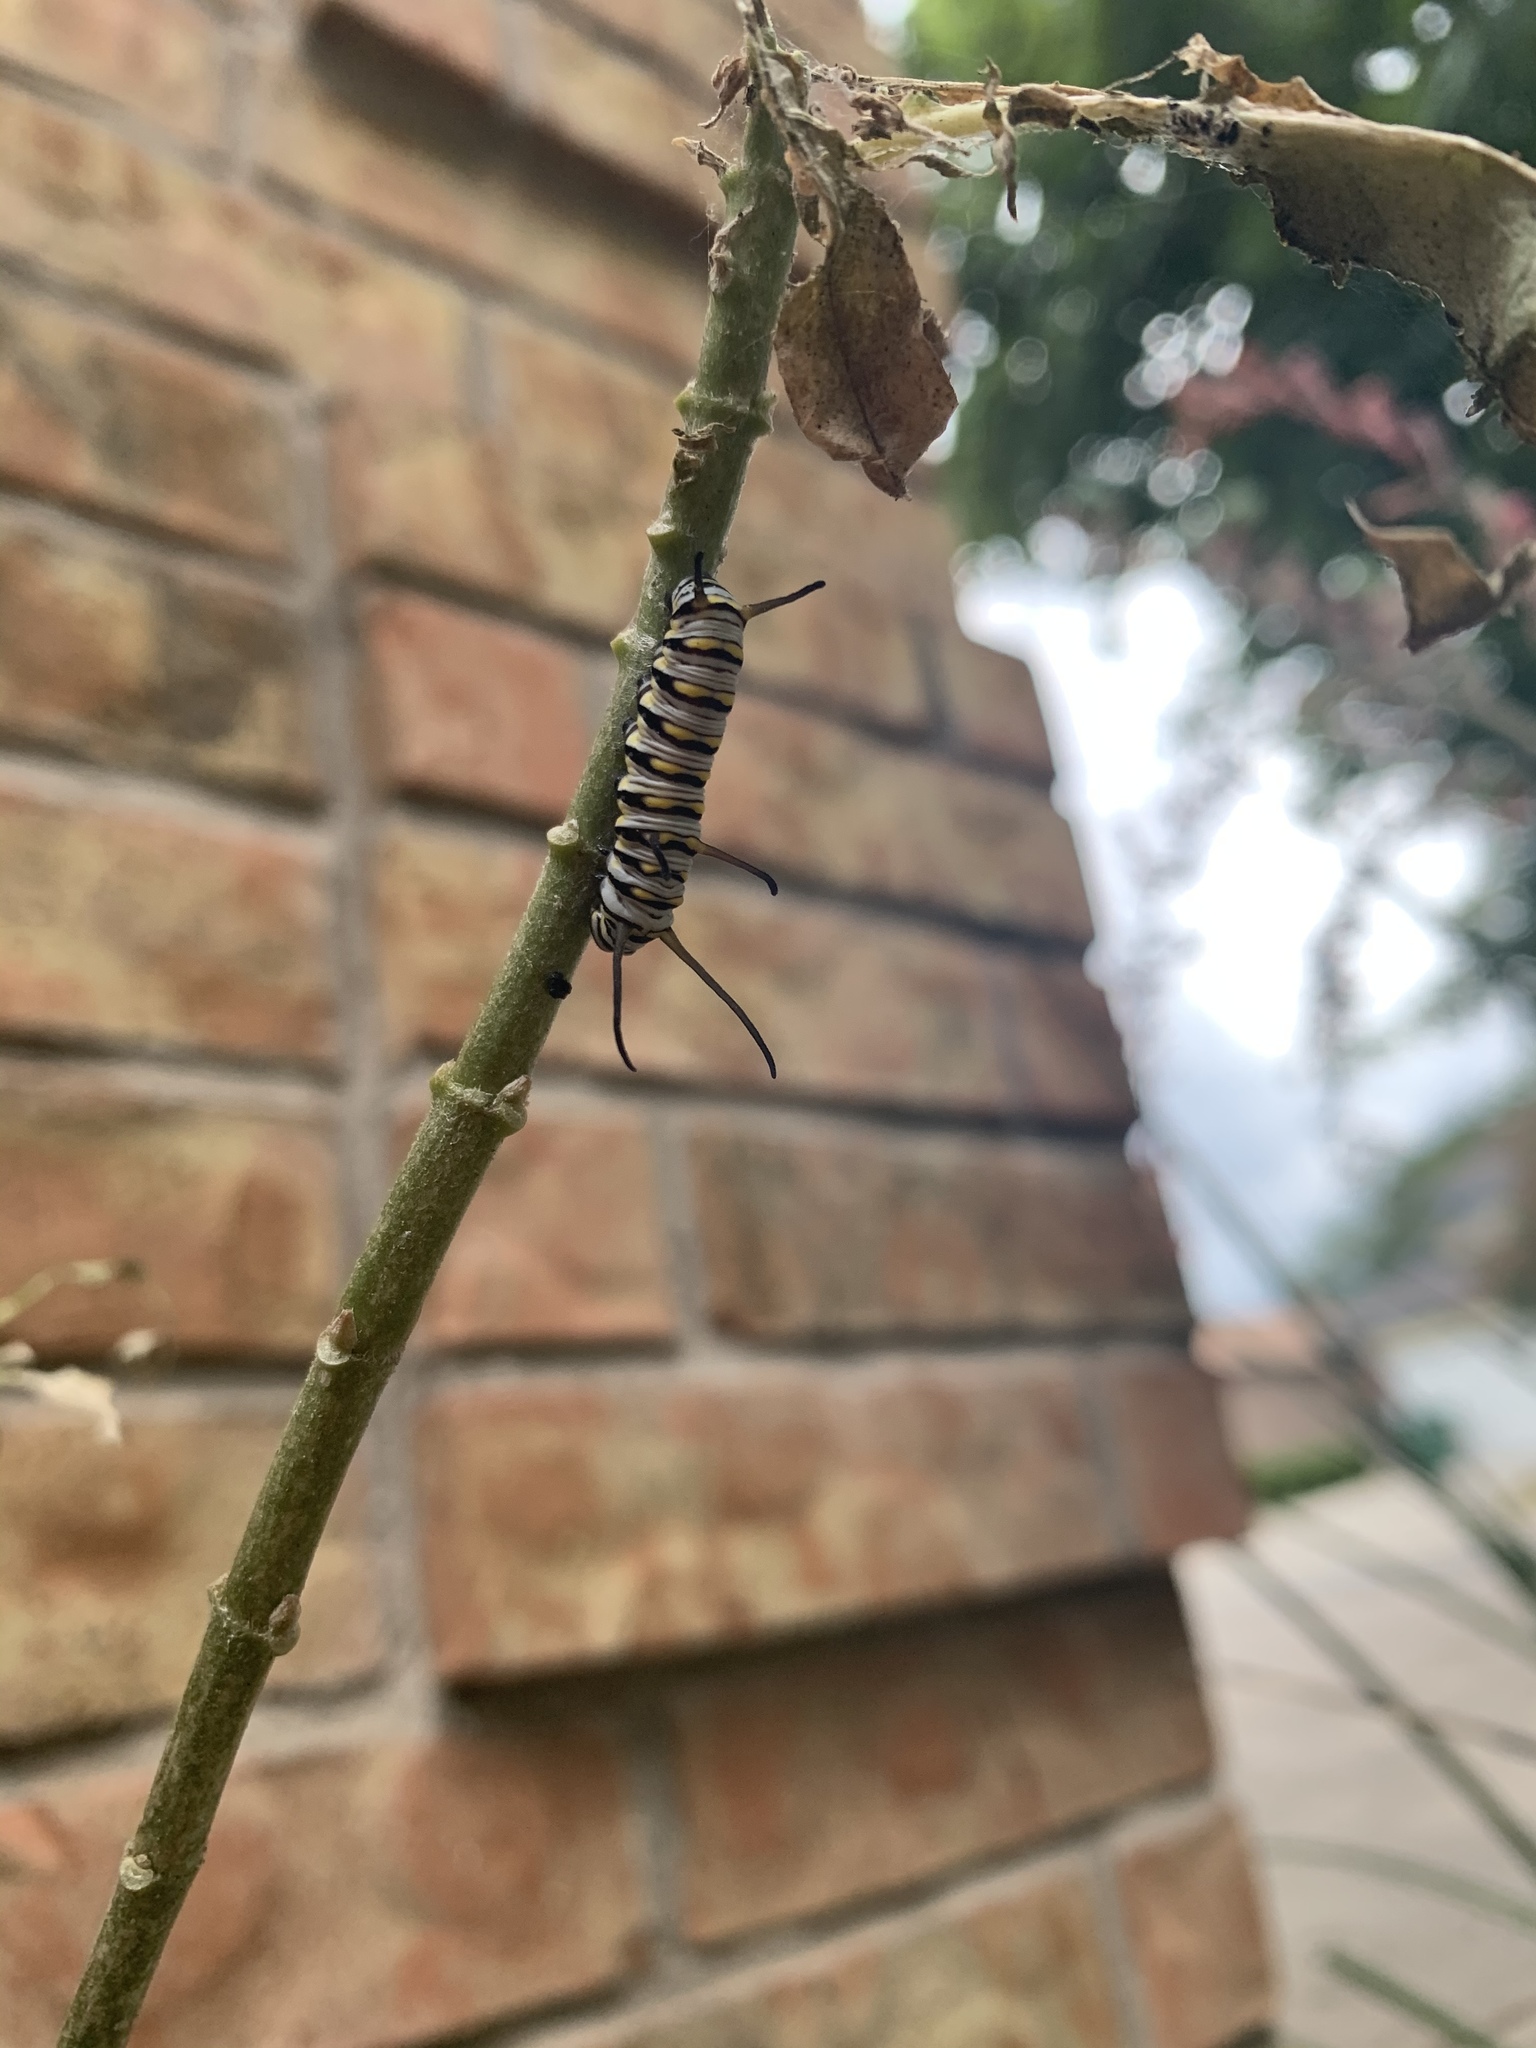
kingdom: Animalia
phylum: Arthropoda
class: Insecta
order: Lepidoptera
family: Nymphalidae
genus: Danaus
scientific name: Danaus gilippus
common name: Queen
